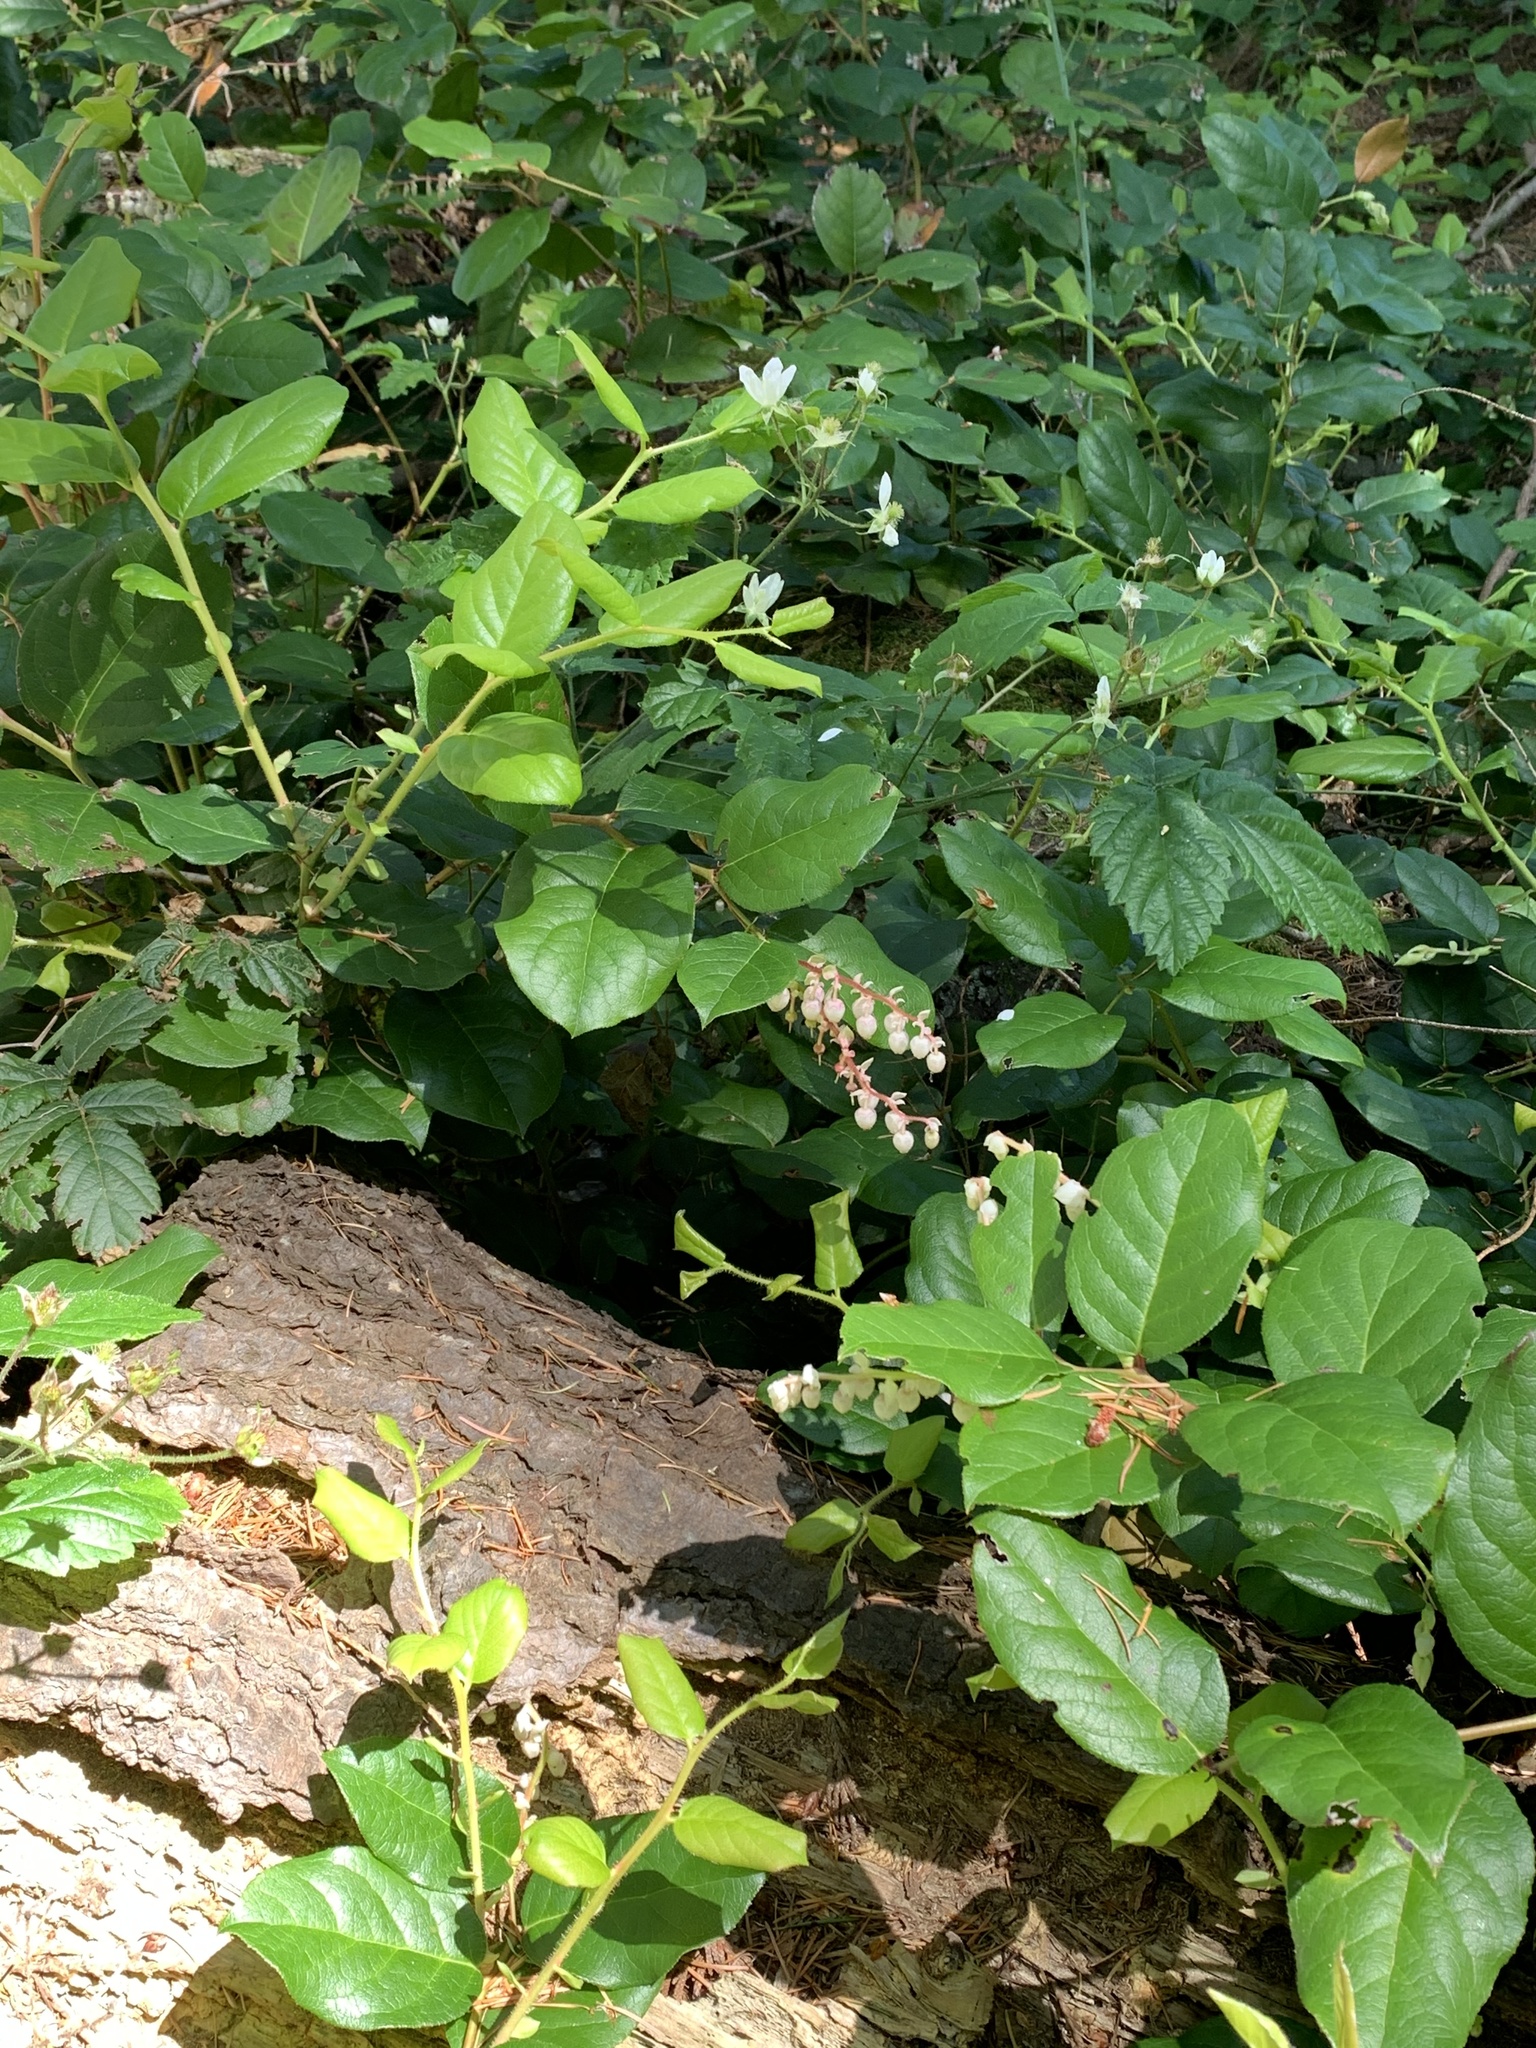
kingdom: Plantae
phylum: Tracheophyta
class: Magnoliopsida
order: Ericales
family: Ericaceae
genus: Gaultheria
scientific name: Gaultheria shallon
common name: Shallon
